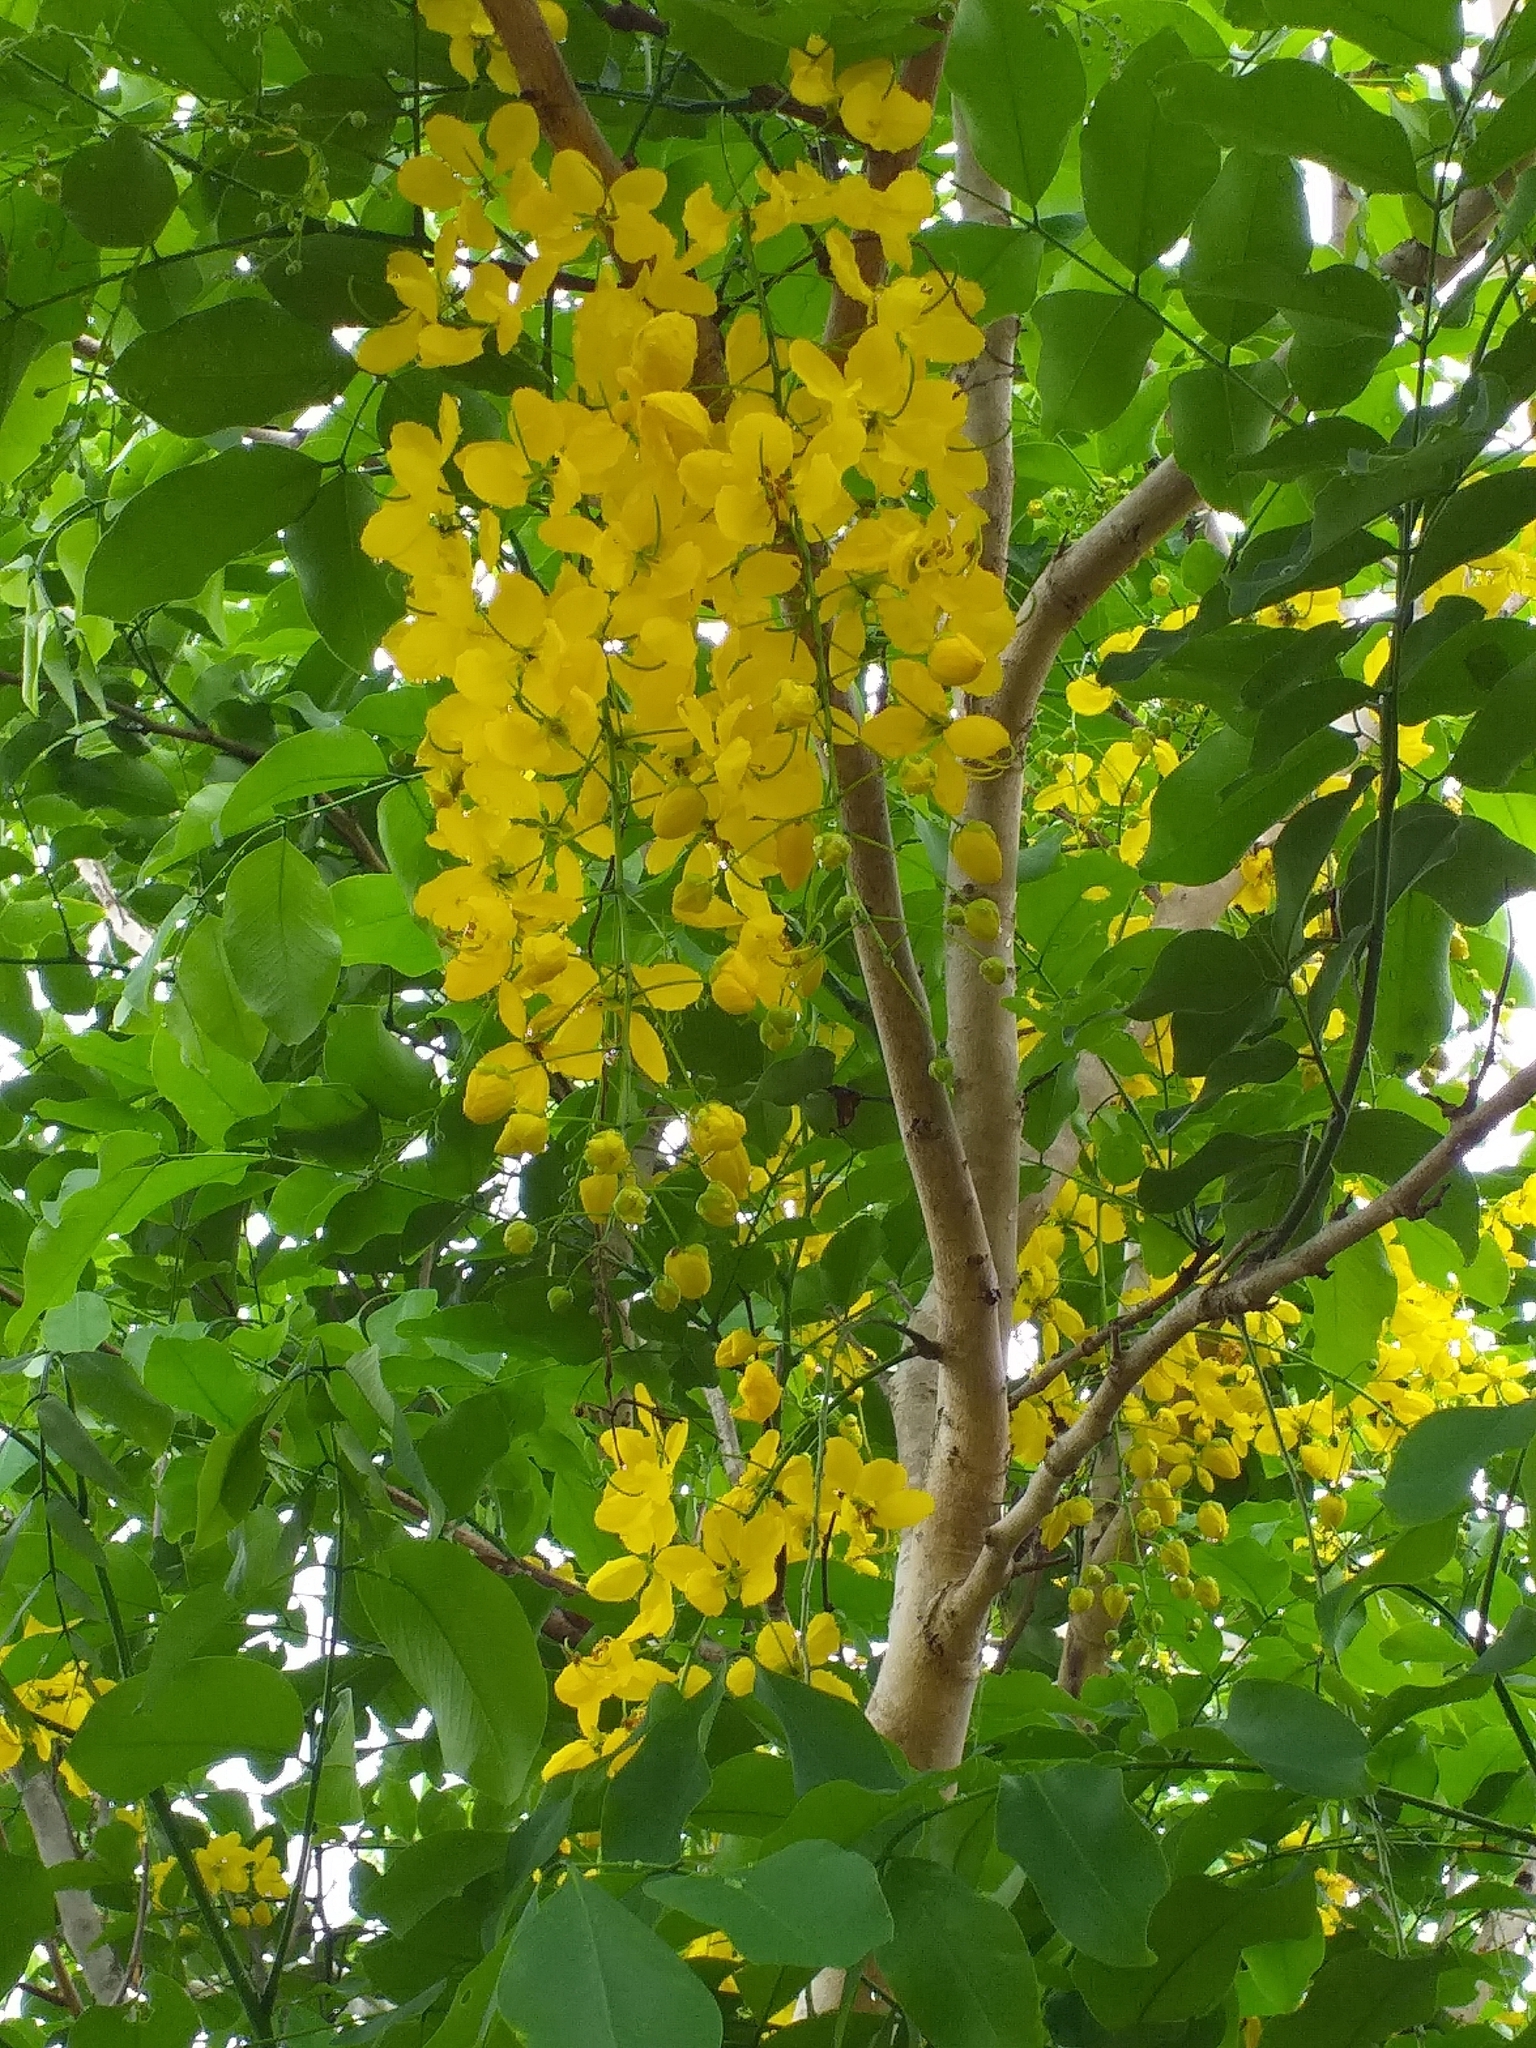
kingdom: Plantae
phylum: Tracheophyta
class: Magnoliopsida
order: Fabales
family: Fabaceae
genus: Cassia
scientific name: Cassia fistula
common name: Golden shower
